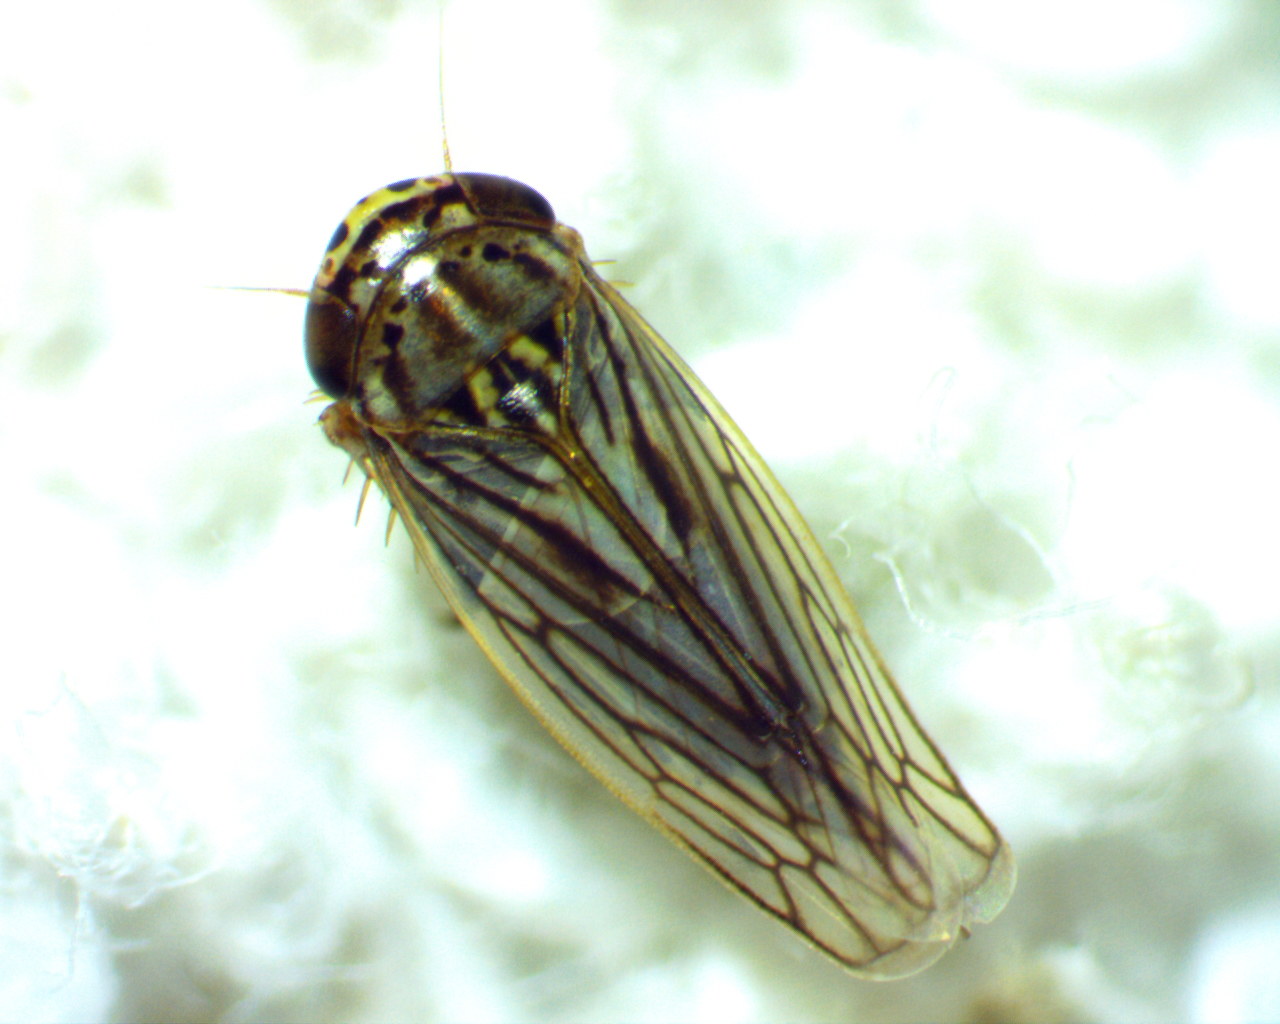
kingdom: Animalia
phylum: Arthropoda
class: Insecta
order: Hemiptera
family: Cicadellidae
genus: Exitianus
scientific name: Exitianus exitiosus
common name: Gray lawn leafhopper
